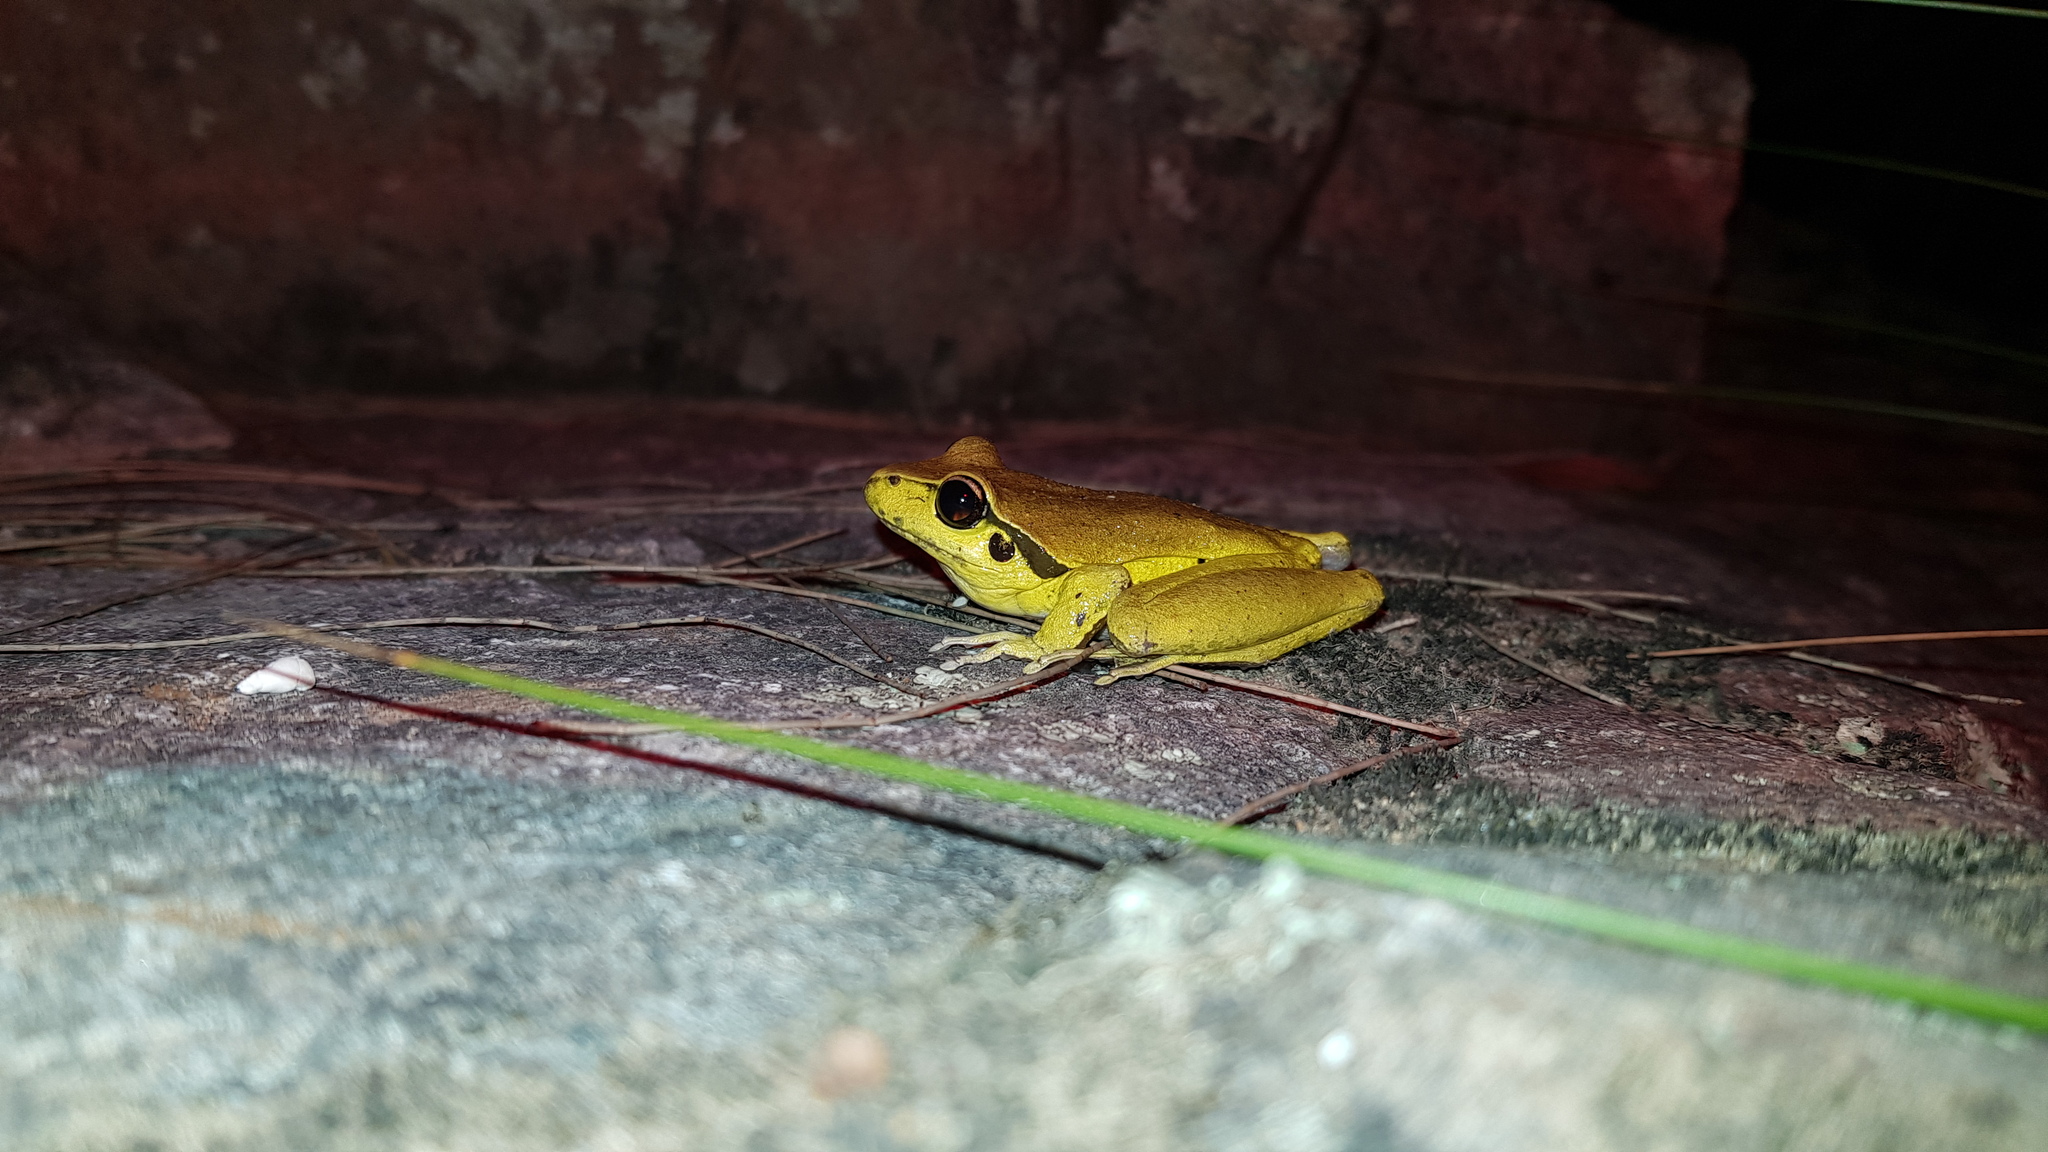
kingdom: Animalia
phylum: Chordata
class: Amphibia
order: Anura
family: Pelodryadidae
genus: Ranoidea
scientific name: Ranoidea lesueurii
